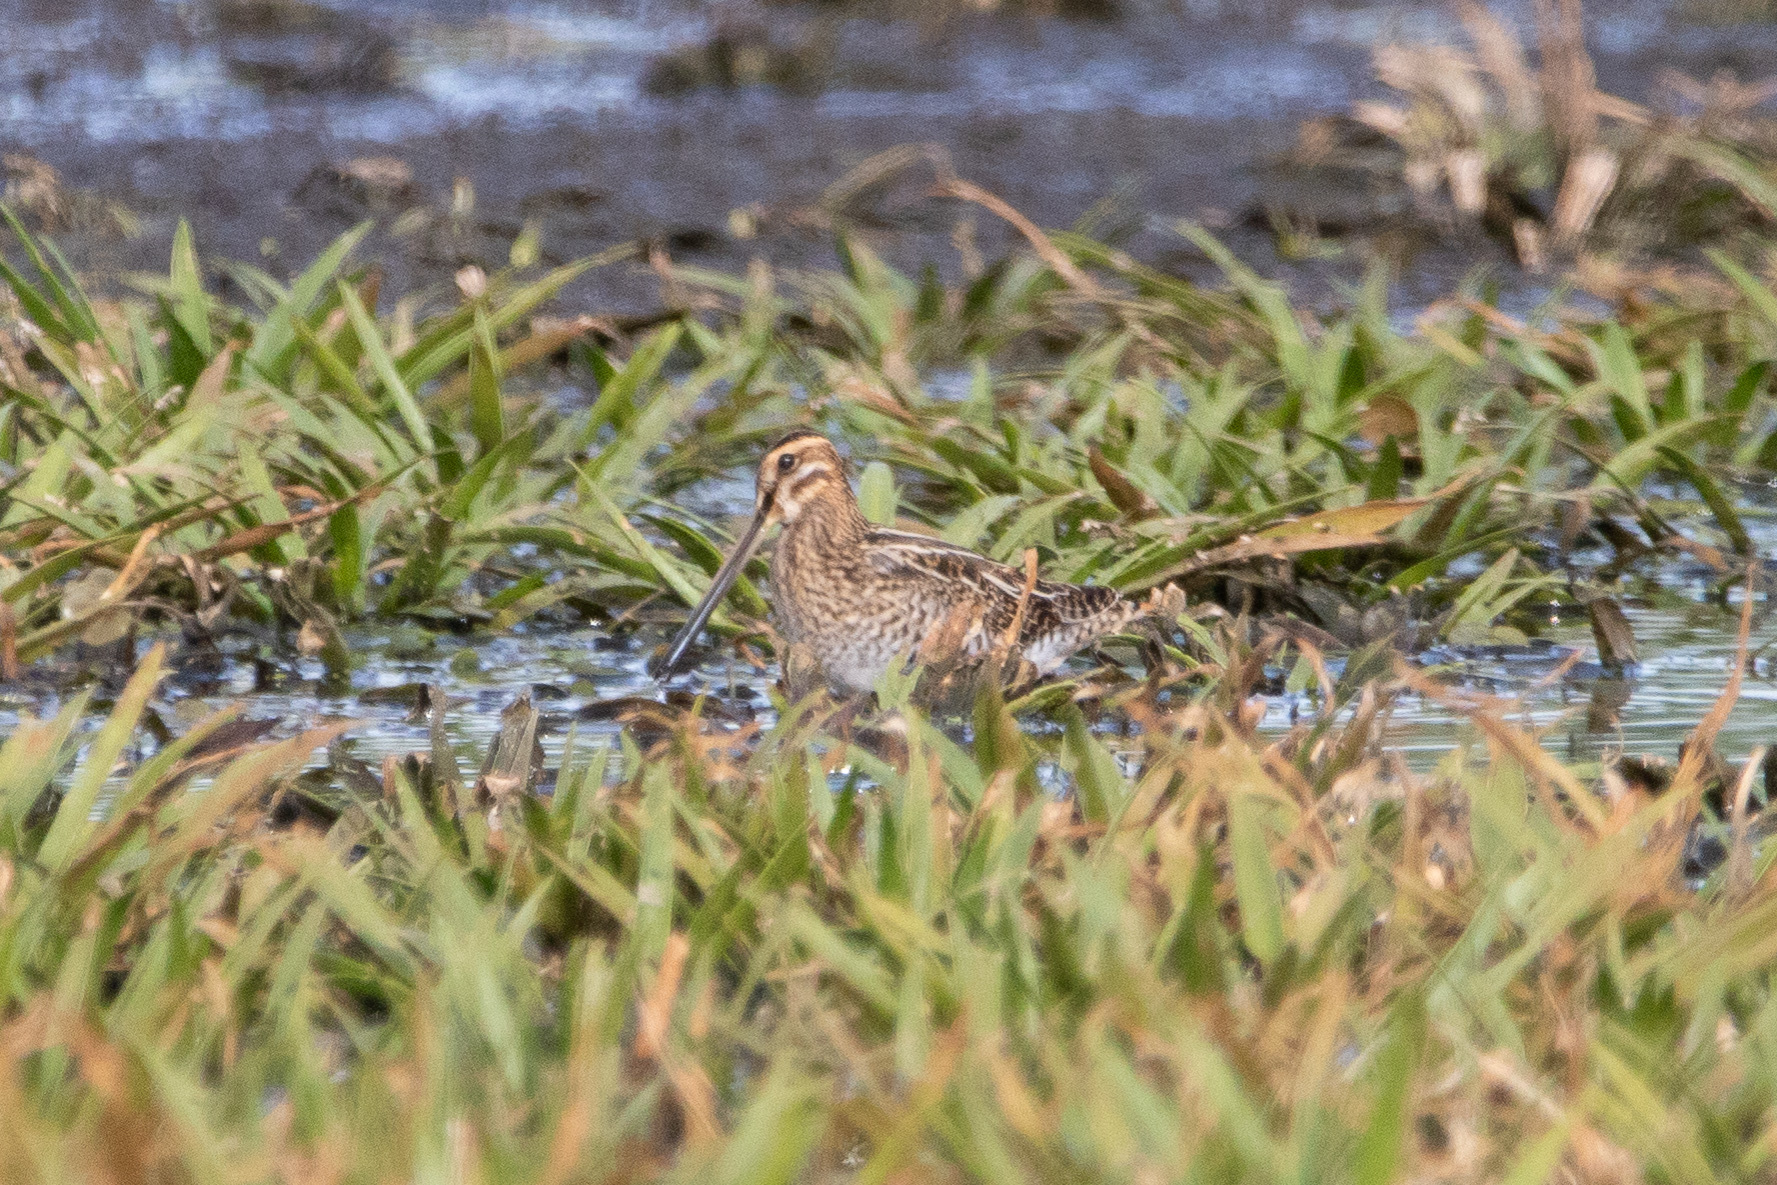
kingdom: Animalia
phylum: Chordata
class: Aves
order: Charadriiformes
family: Scolopacidae
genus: Gallinago
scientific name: Gallinago gallinago
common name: Common snipe
